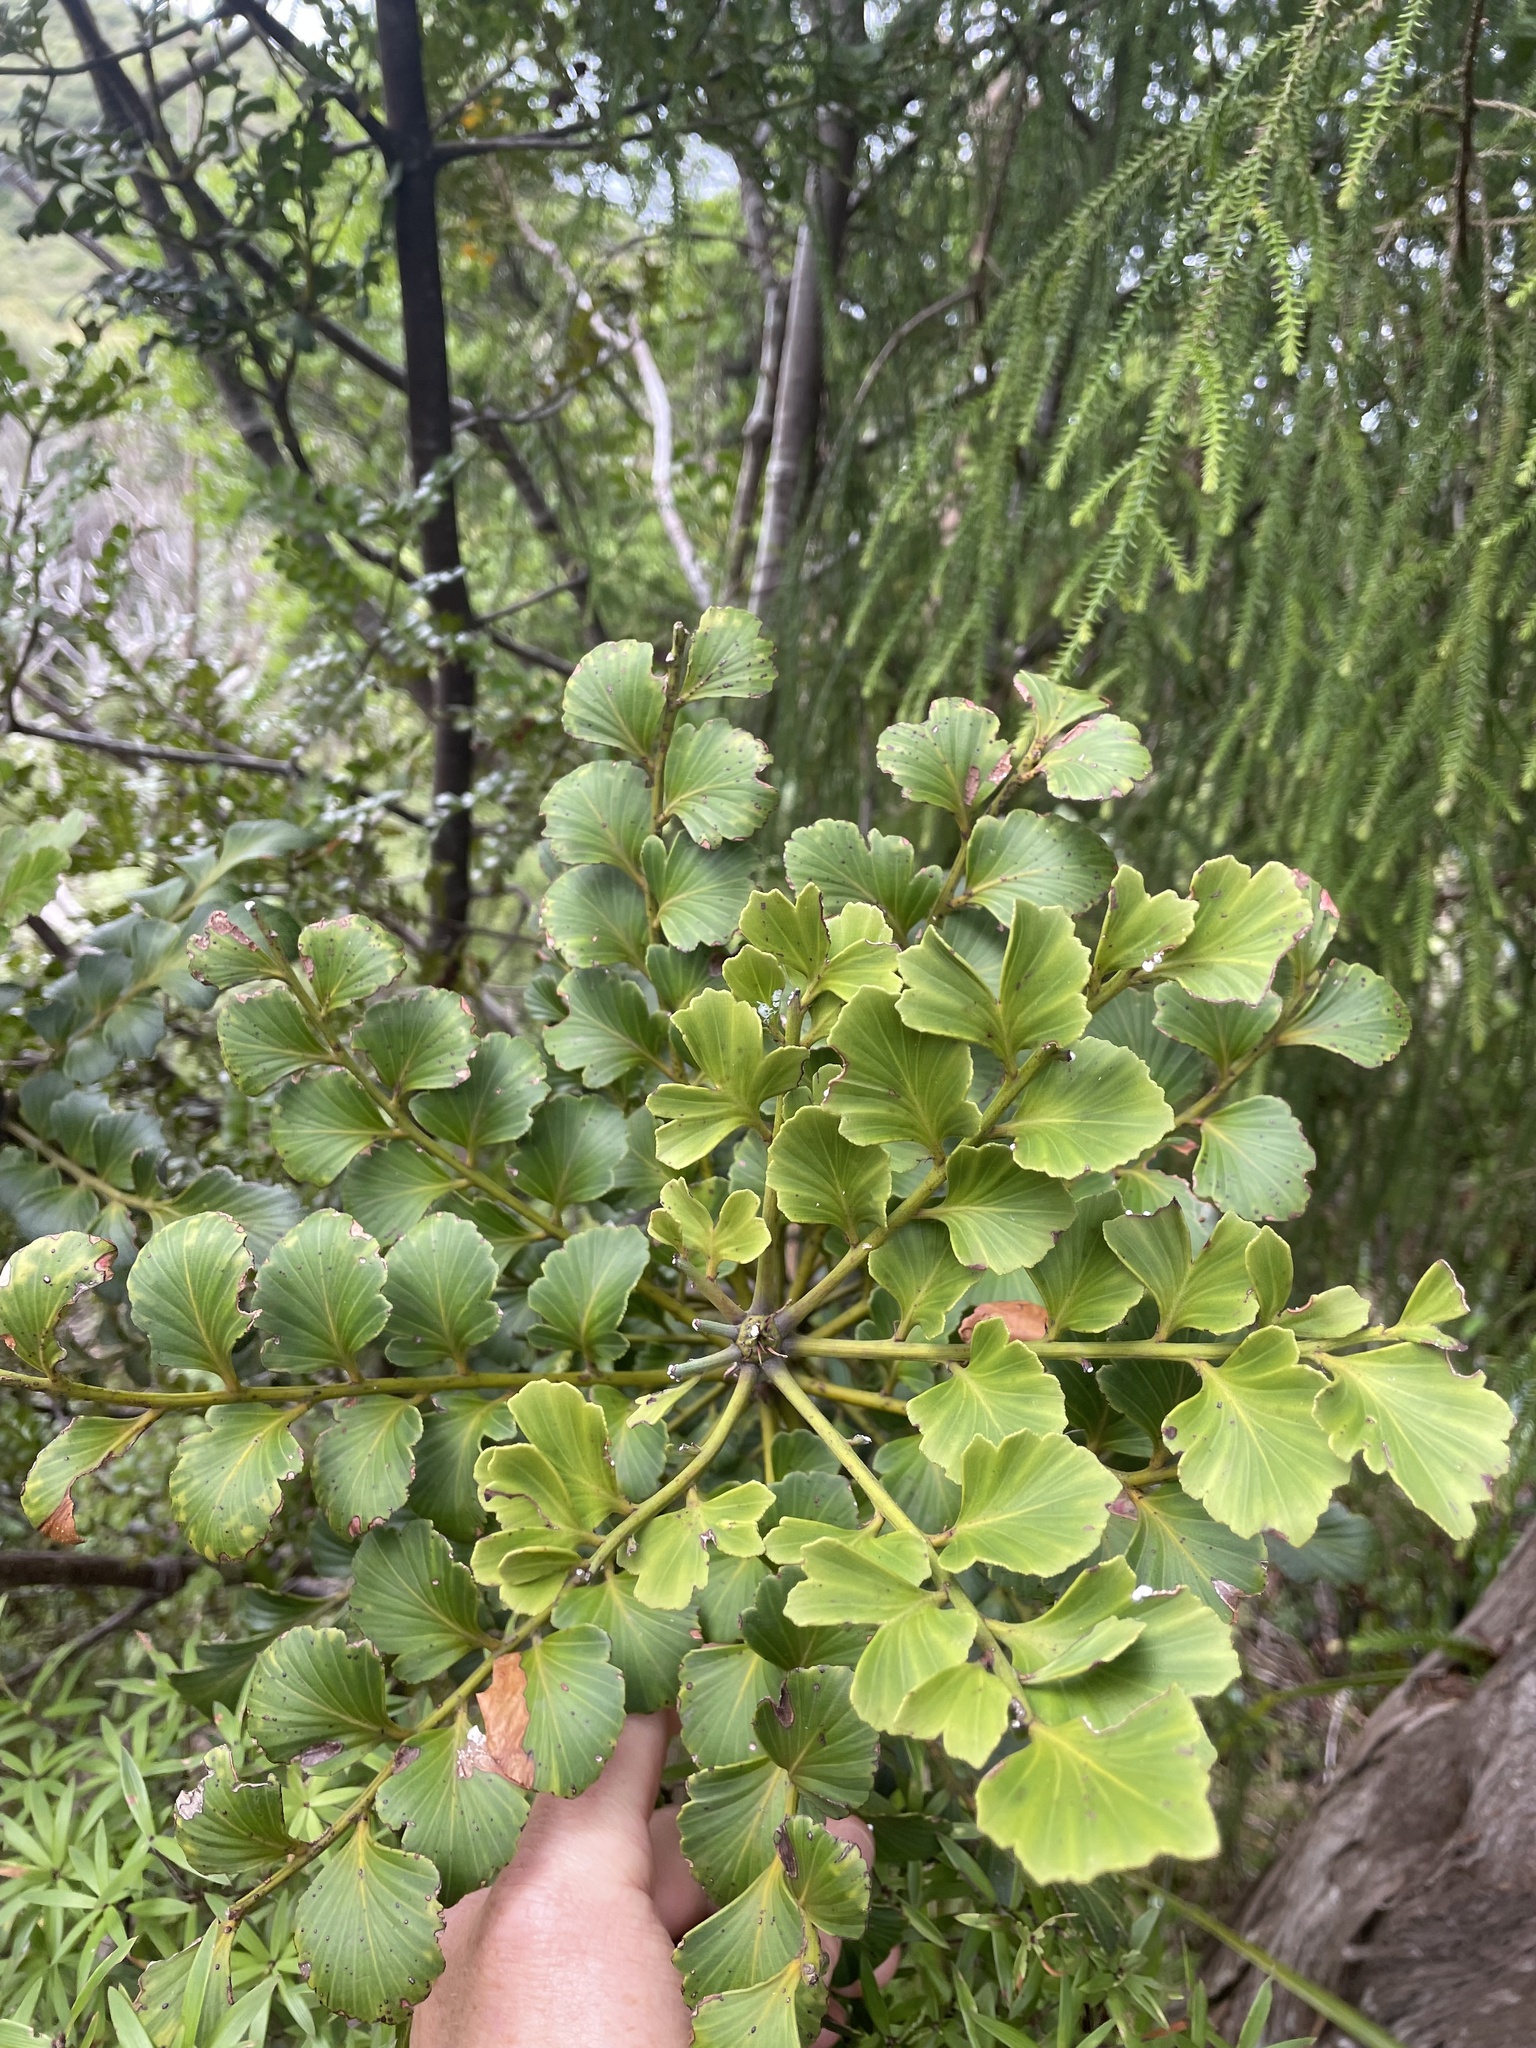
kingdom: Plantae
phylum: Tracheophyta
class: Pinopsida
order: Pinales
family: Phyllocladaceae
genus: Phyllocladus
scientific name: Phyllocladus toatoa
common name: Celery-top pine
